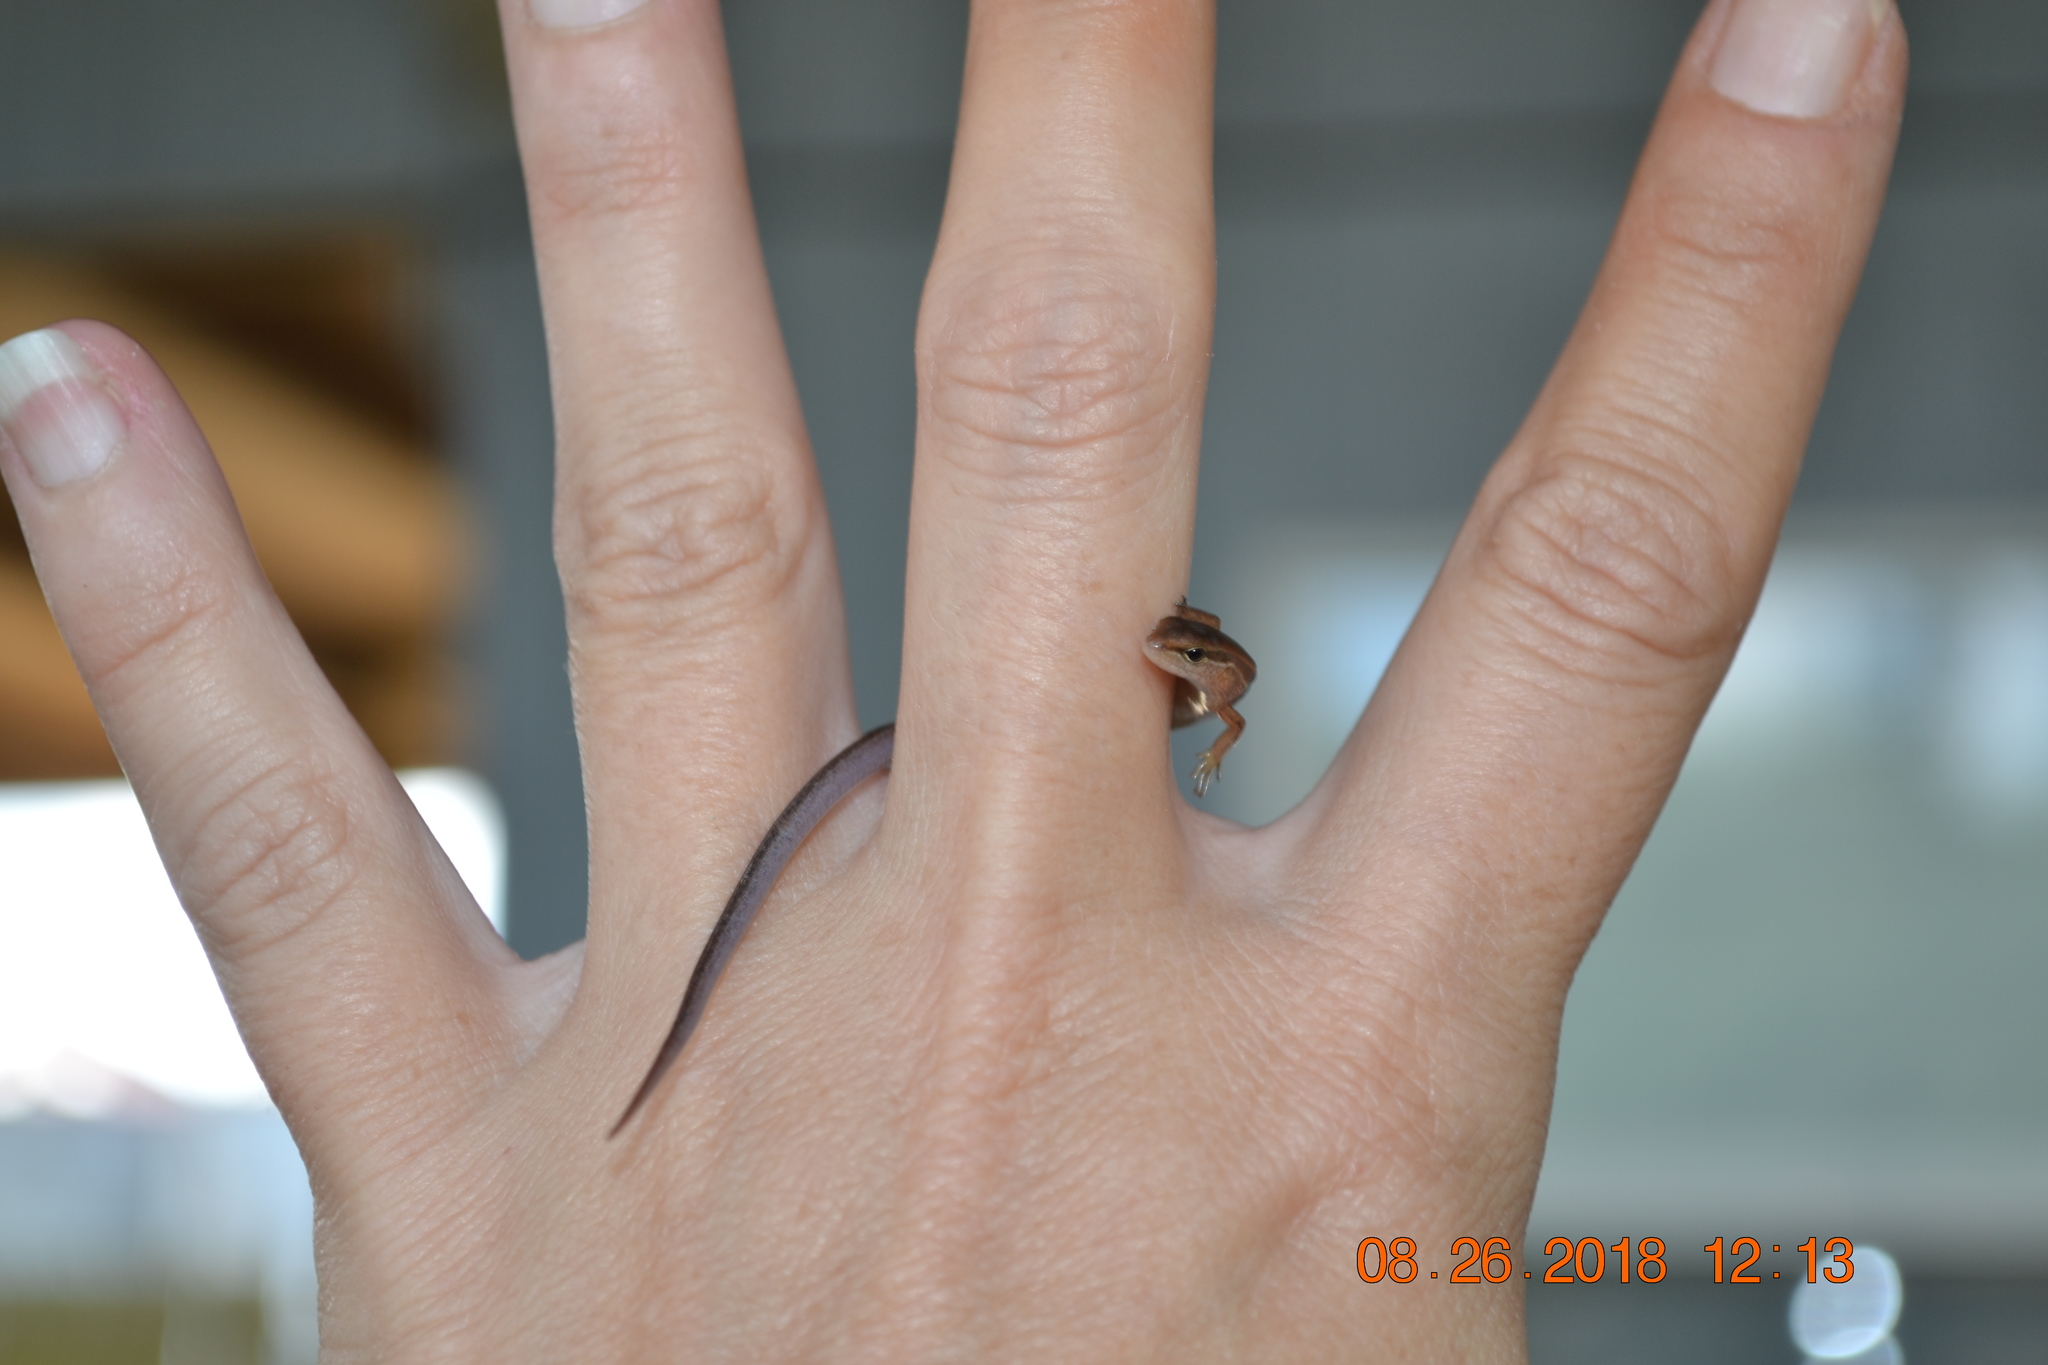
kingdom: Animalia
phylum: Chordata
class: Squamata
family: Scincidae
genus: Scincella
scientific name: Scincella lateralis
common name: Ground skink
